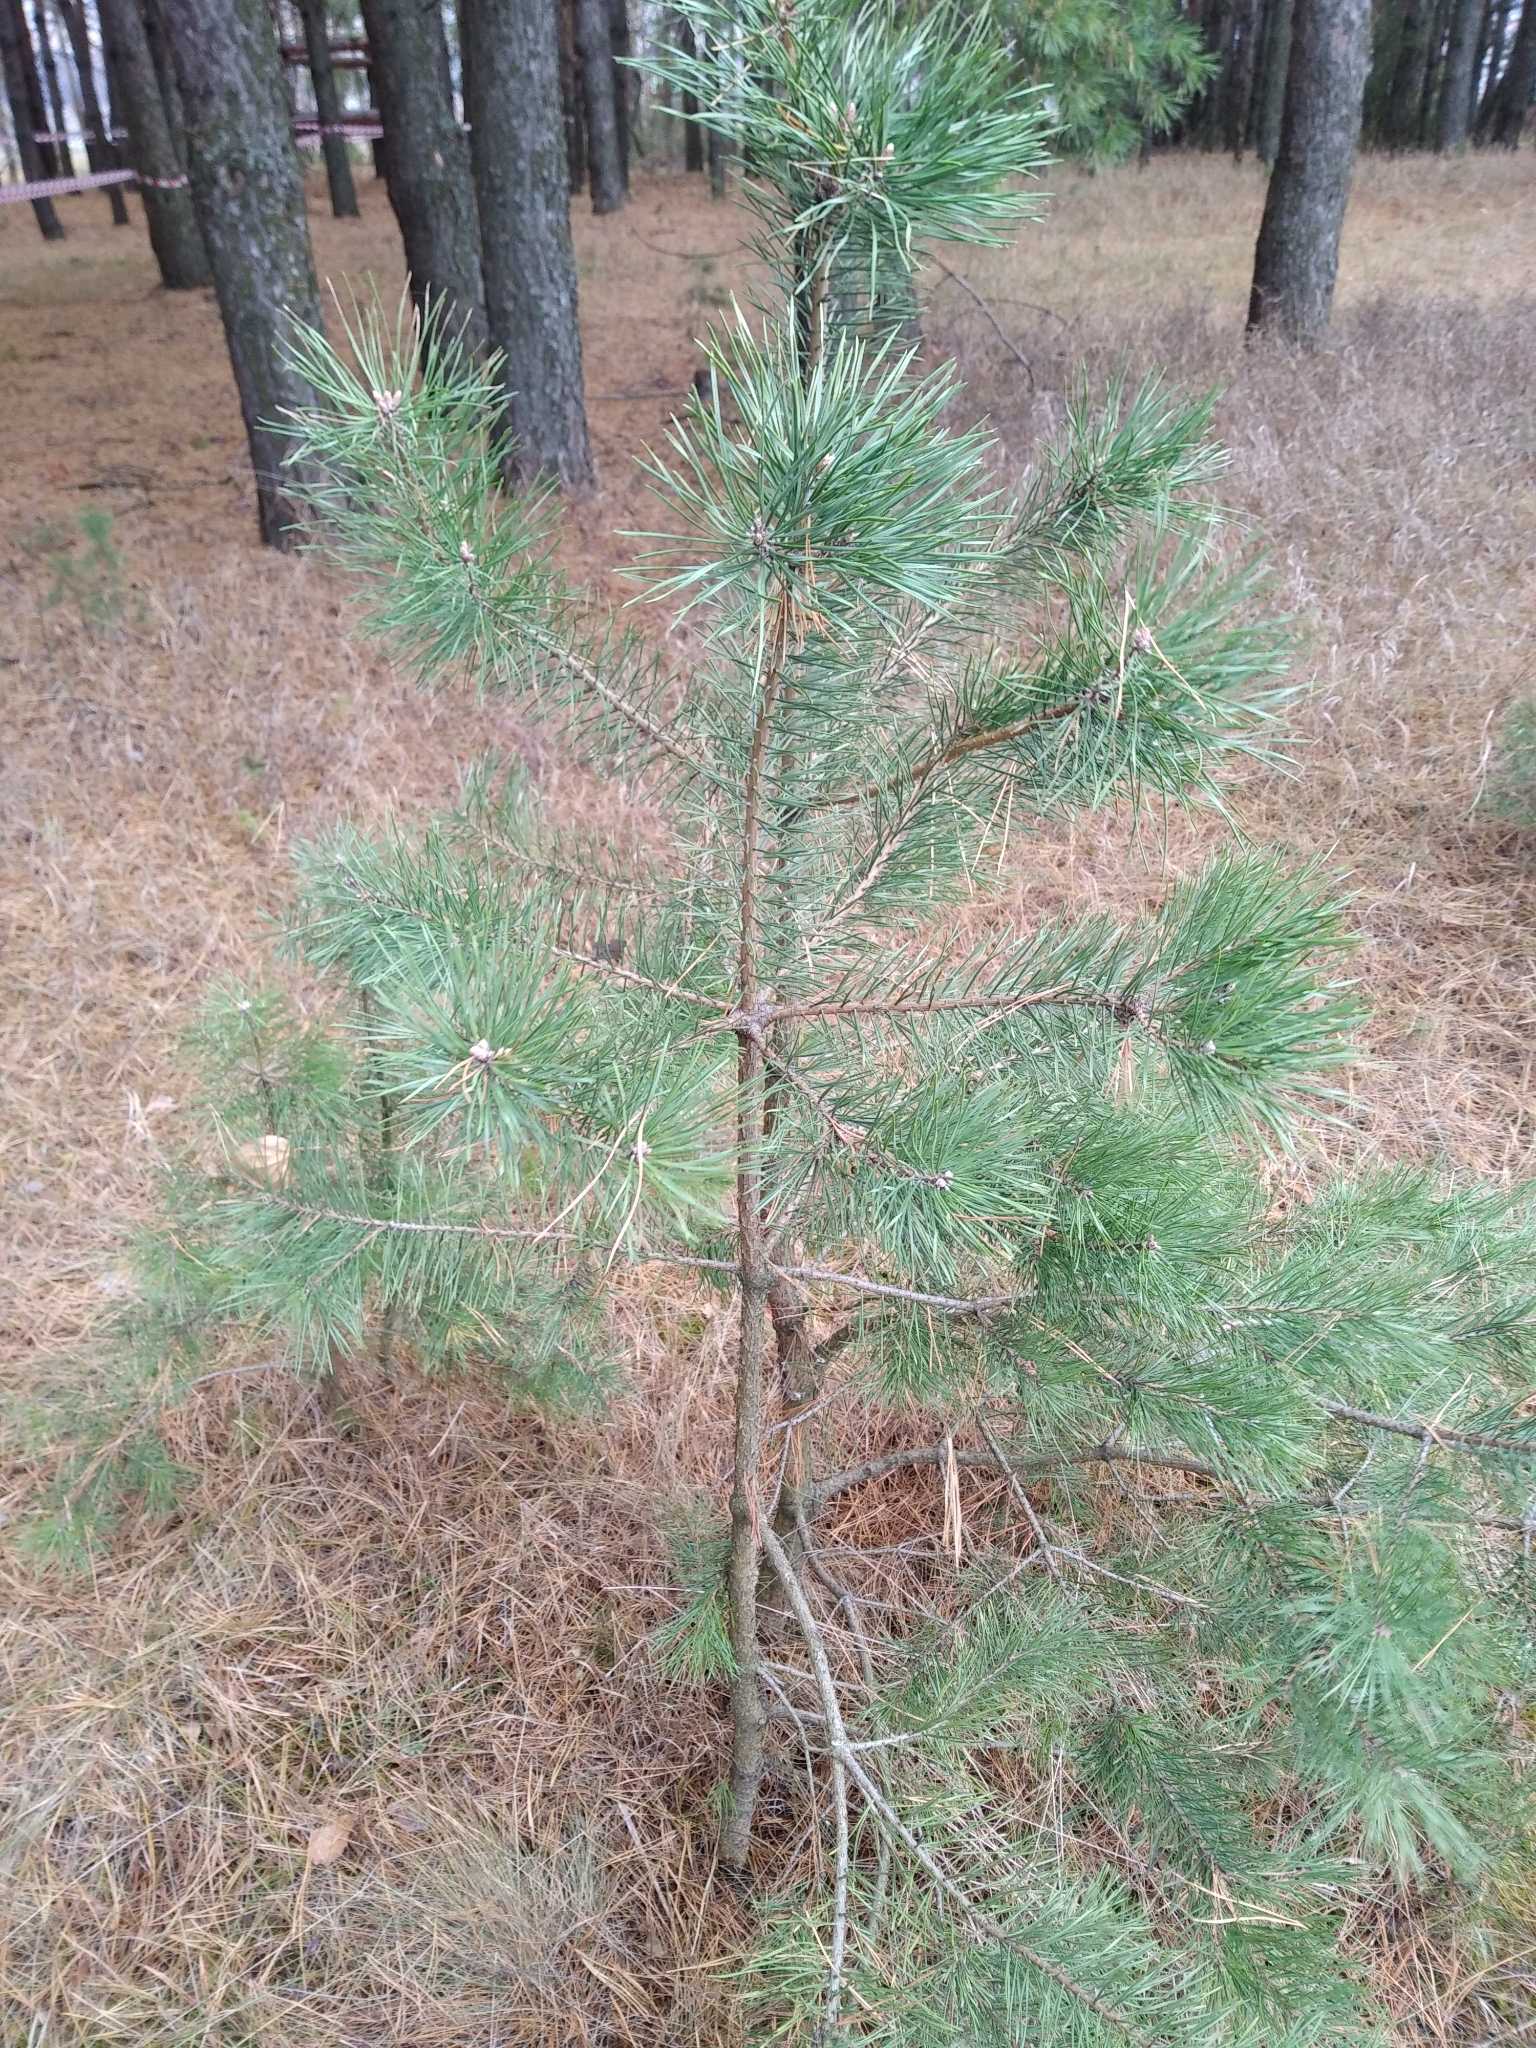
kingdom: Plantae
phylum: Tracheophyta
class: Pinopsida
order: Pinales
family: Pinaceae
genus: Pinus
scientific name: Pinus sylvestris
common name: Scots pine
